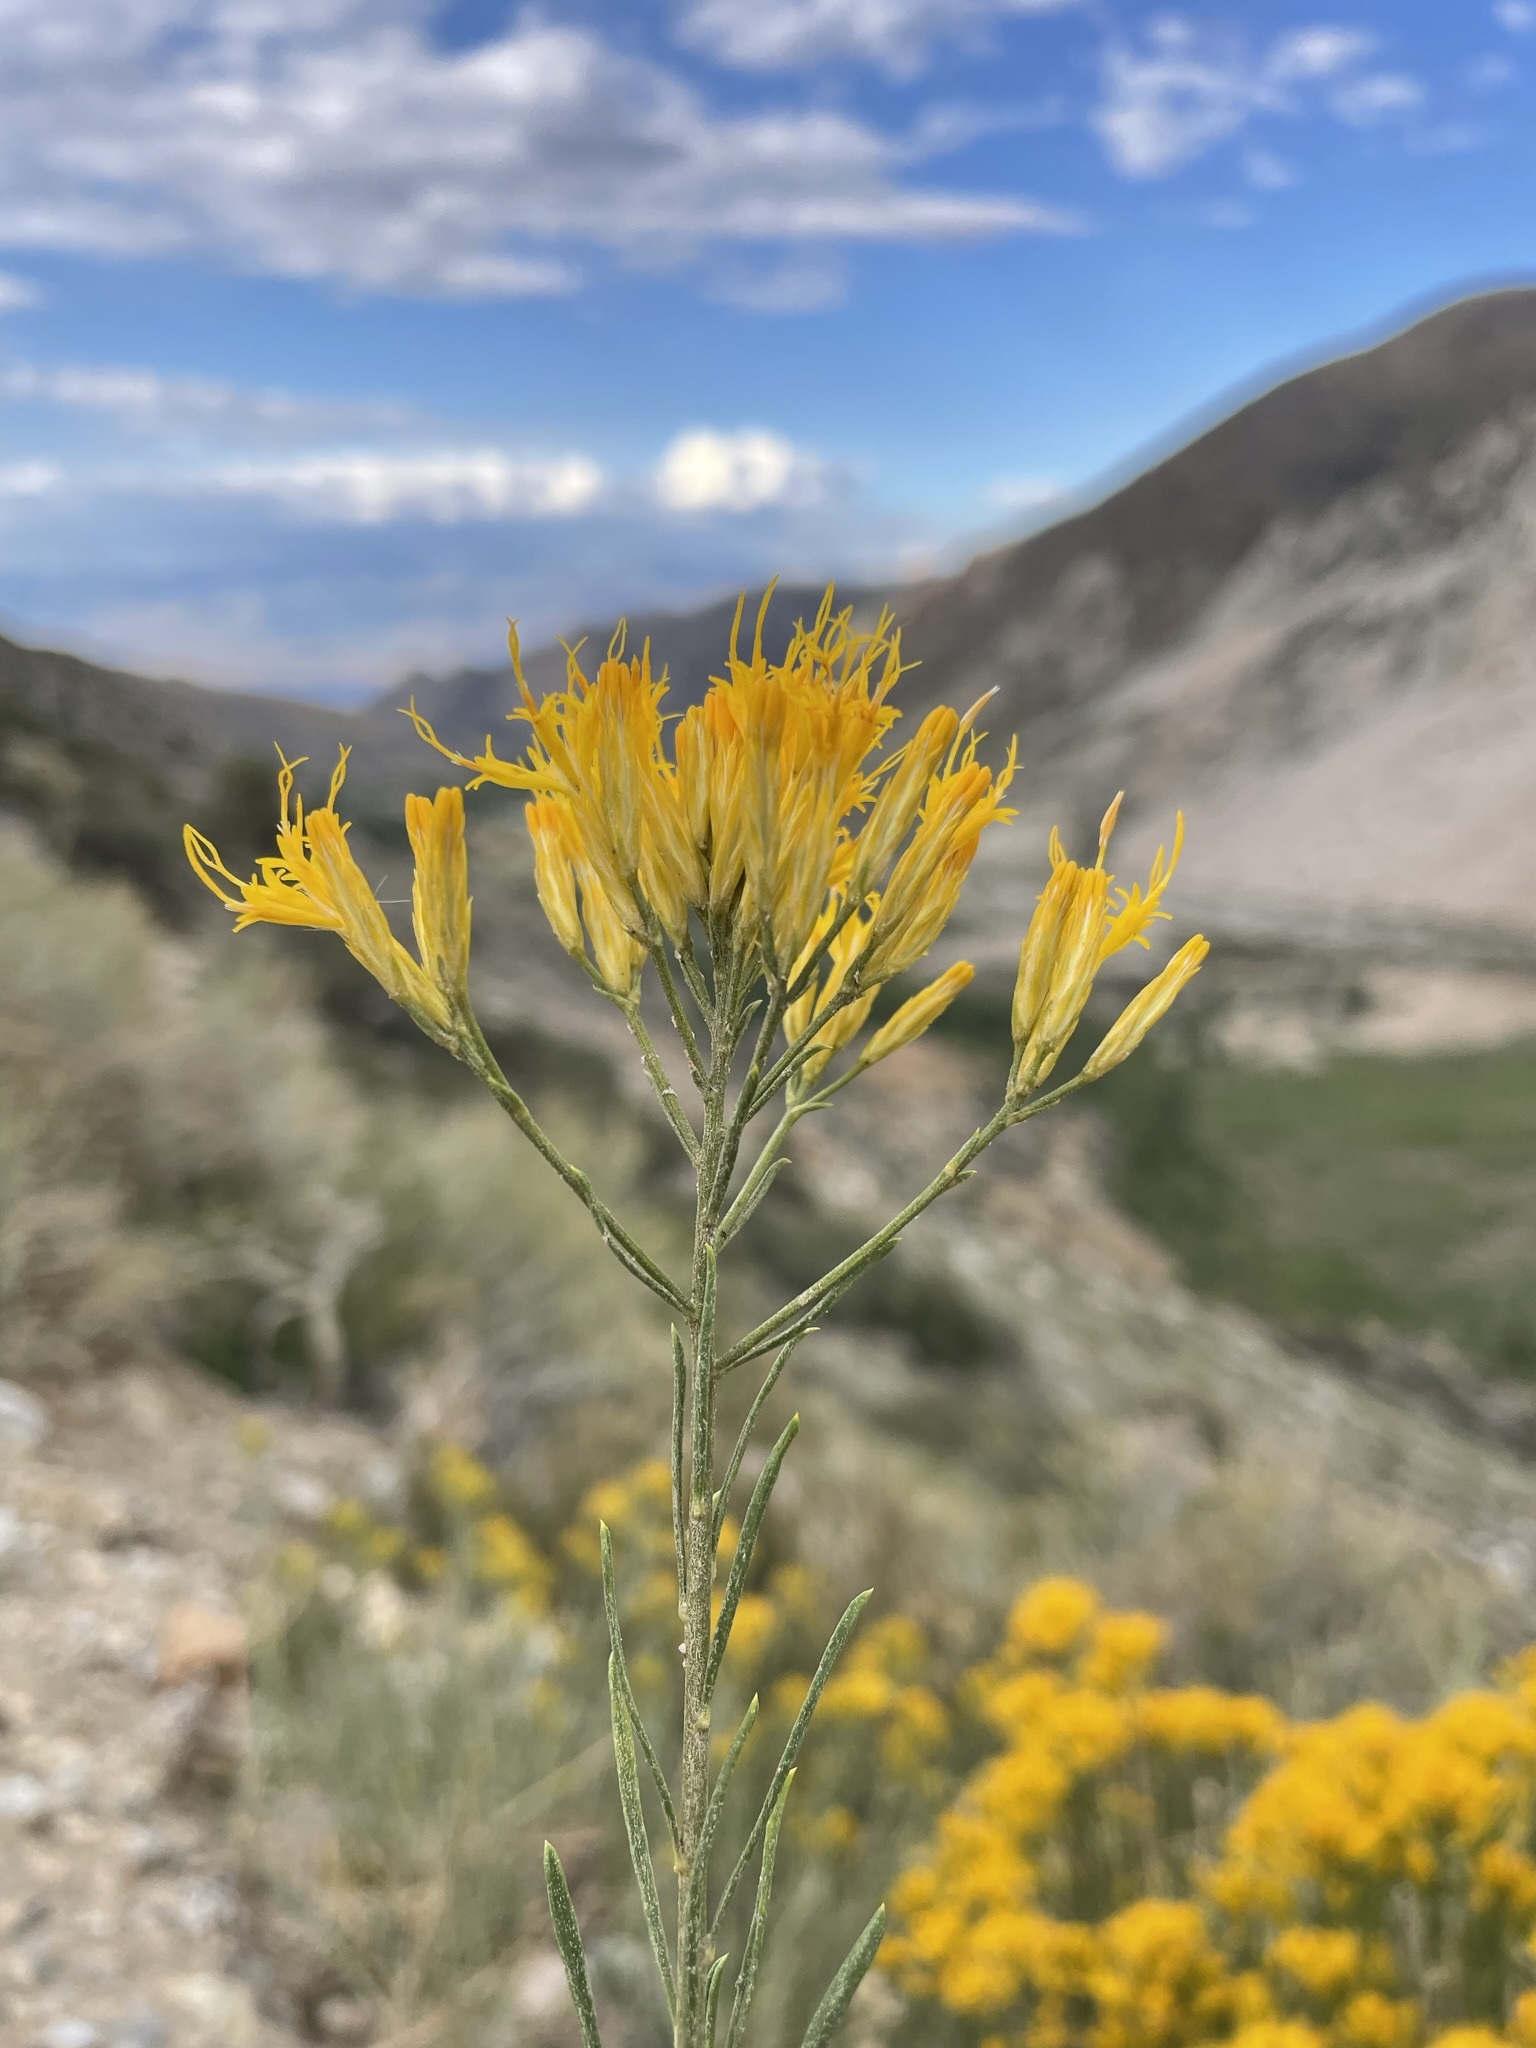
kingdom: Plantae
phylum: Tracheophyta
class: Magnoliopsida
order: Asterales
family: Asteraceae
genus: Ericameria
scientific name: Ericameria nauseosa
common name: Rubber rabbitbrush
